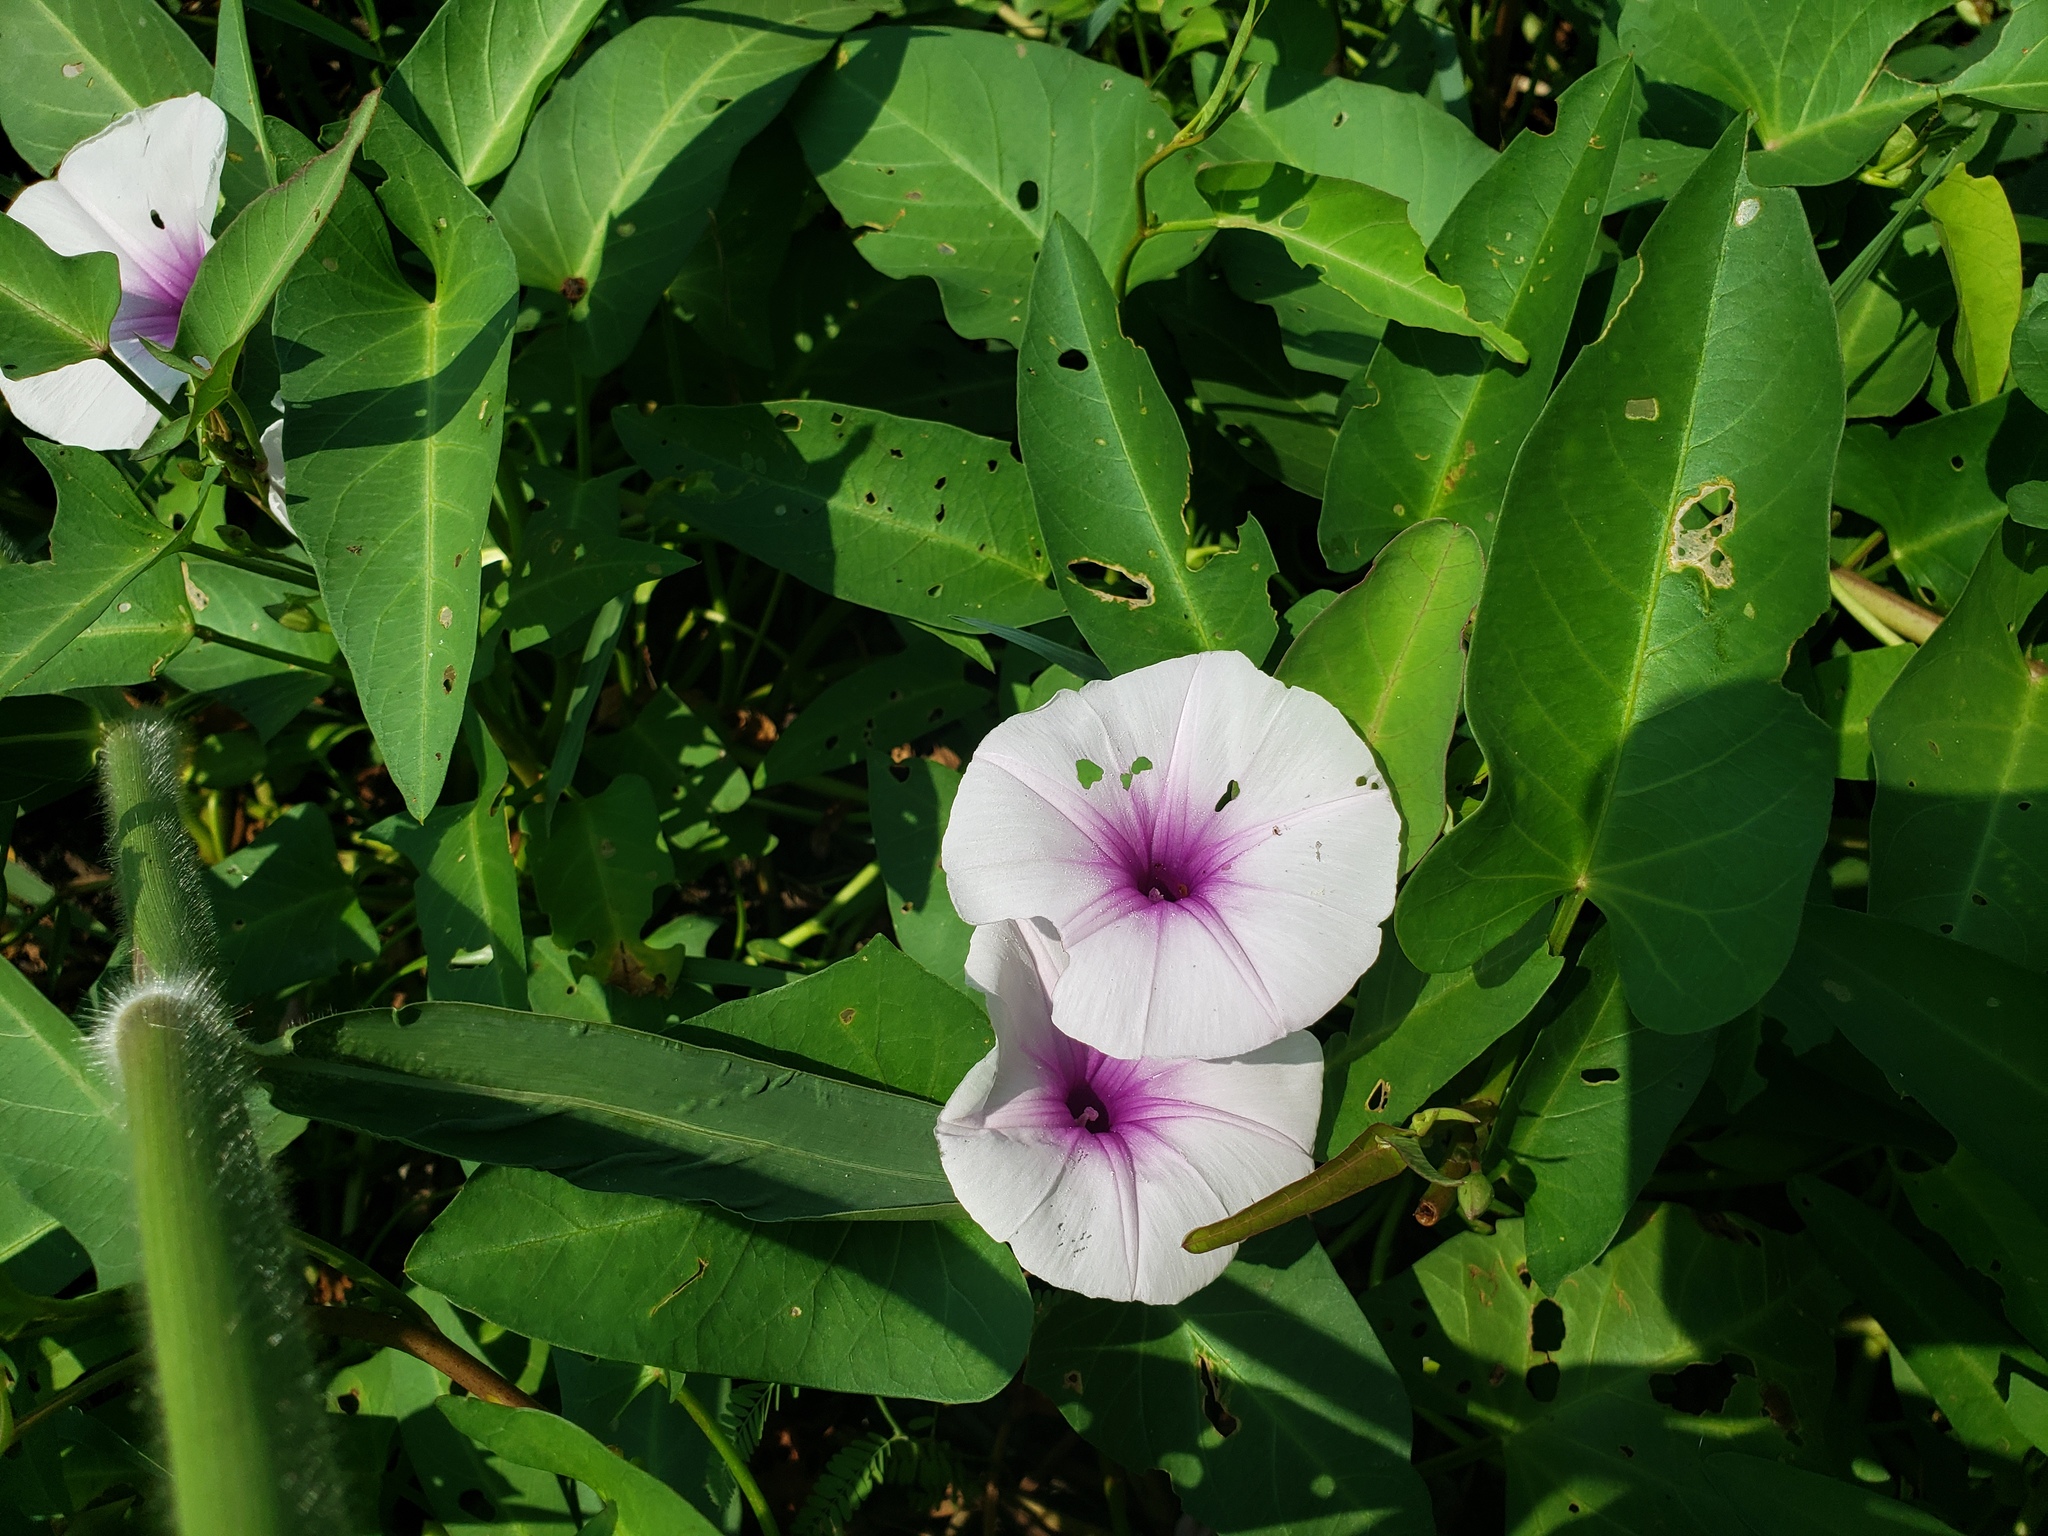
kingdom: Plantae
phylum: Tracheophyta
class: Magnoliopsida
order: Solanales
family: Convolvulaceae
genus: Ipomoea
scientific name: Ipomoea aquatica
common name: Swamp morning-glory
